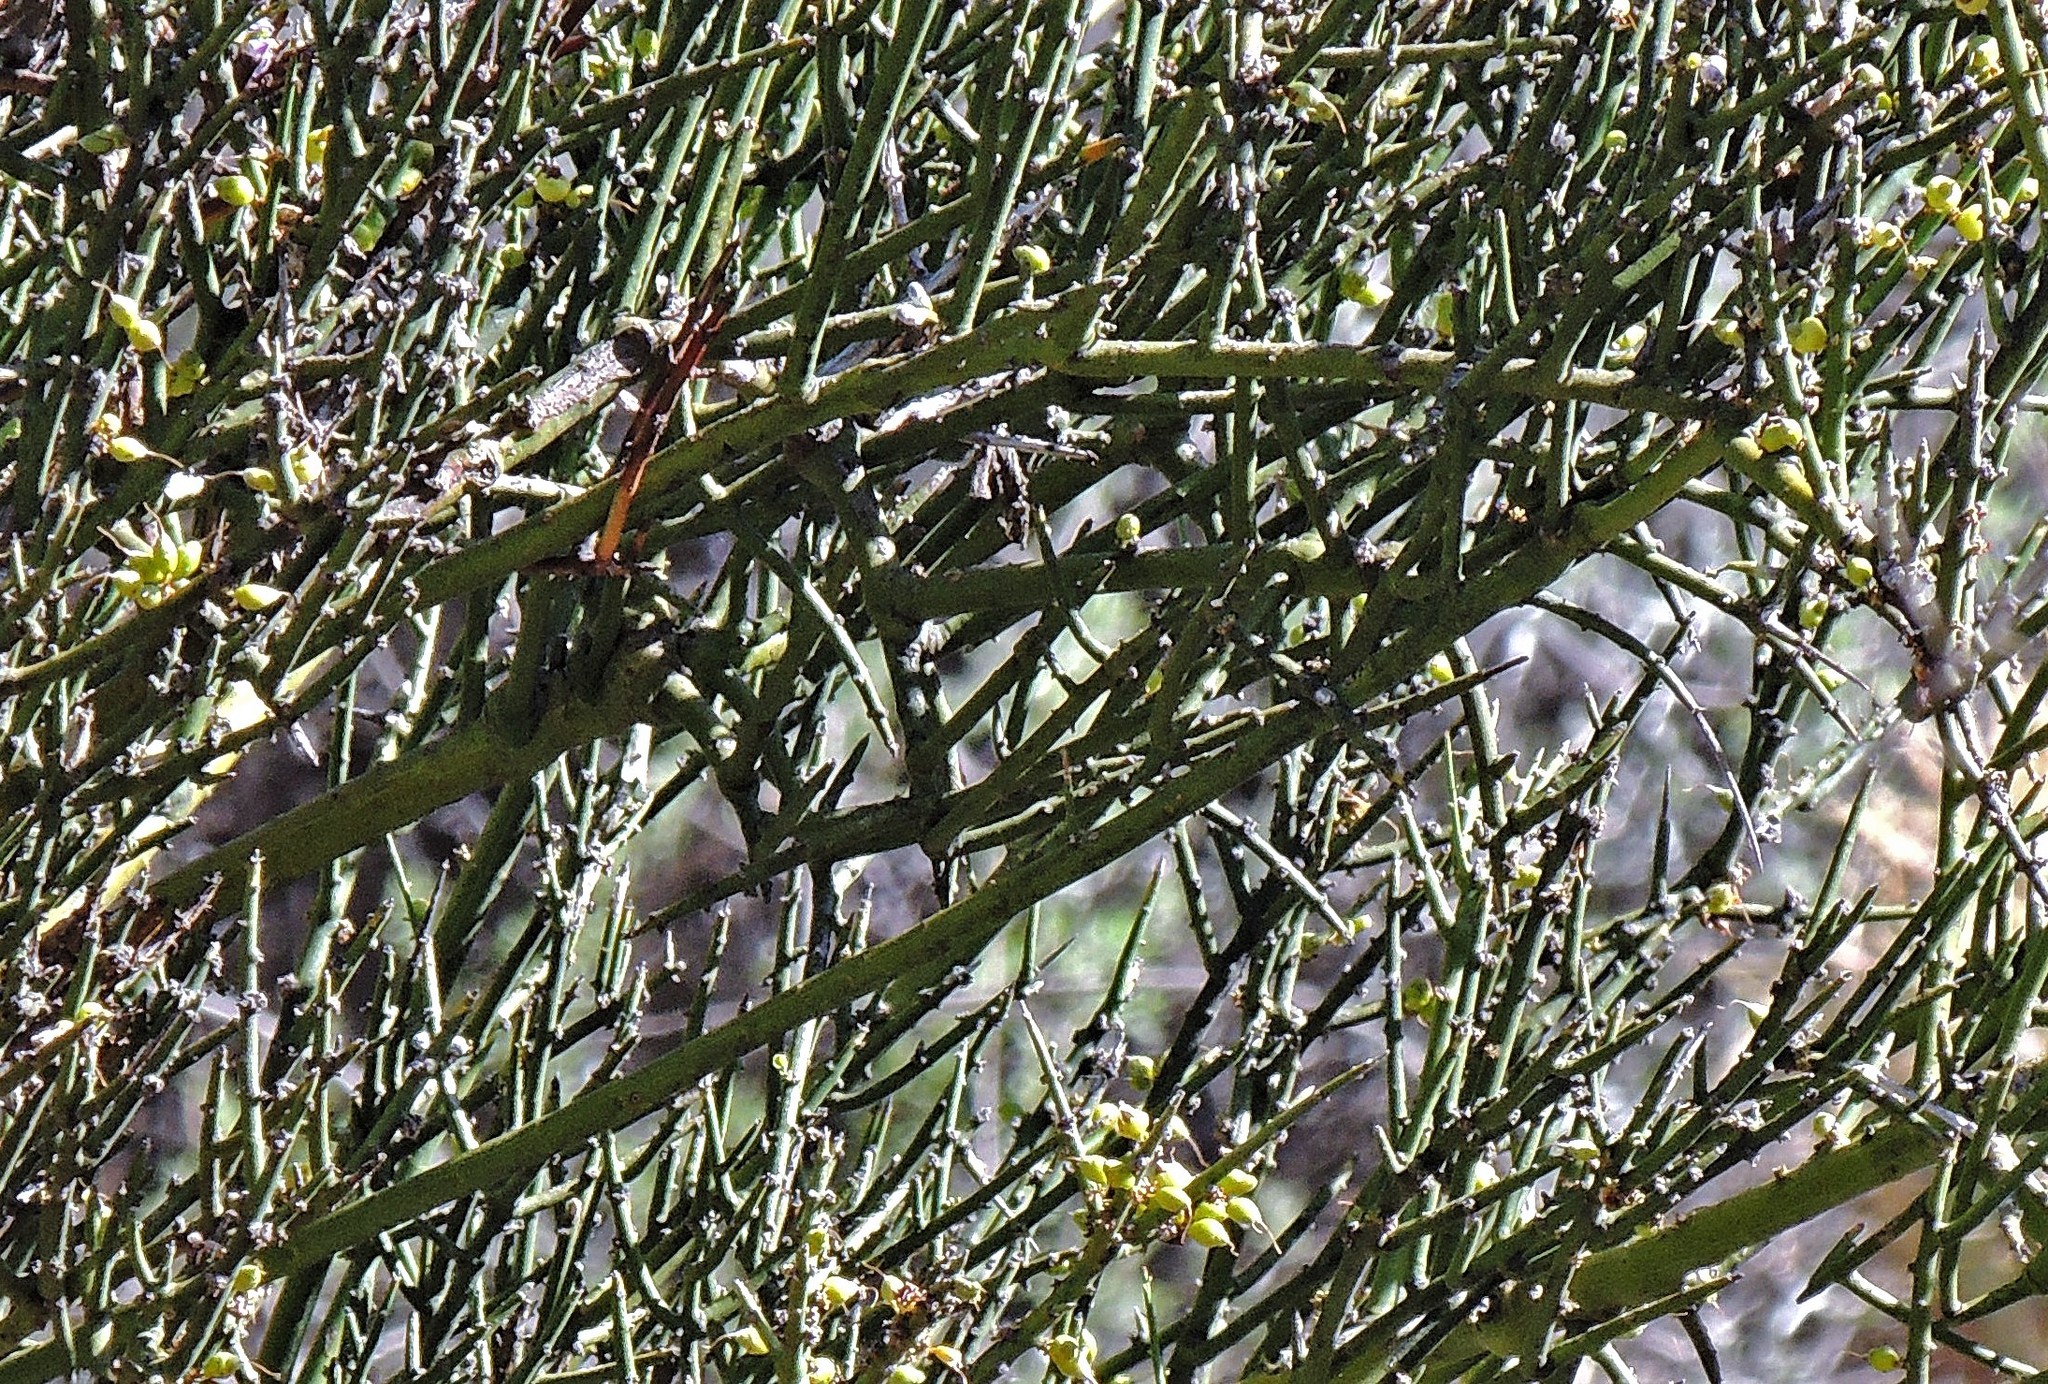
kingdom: Plantae
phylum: Tracheophyta
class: Magnoliopsida
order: Lamiales
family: Plantaginaceae
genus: Monttea
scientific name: Monttea aphylla
